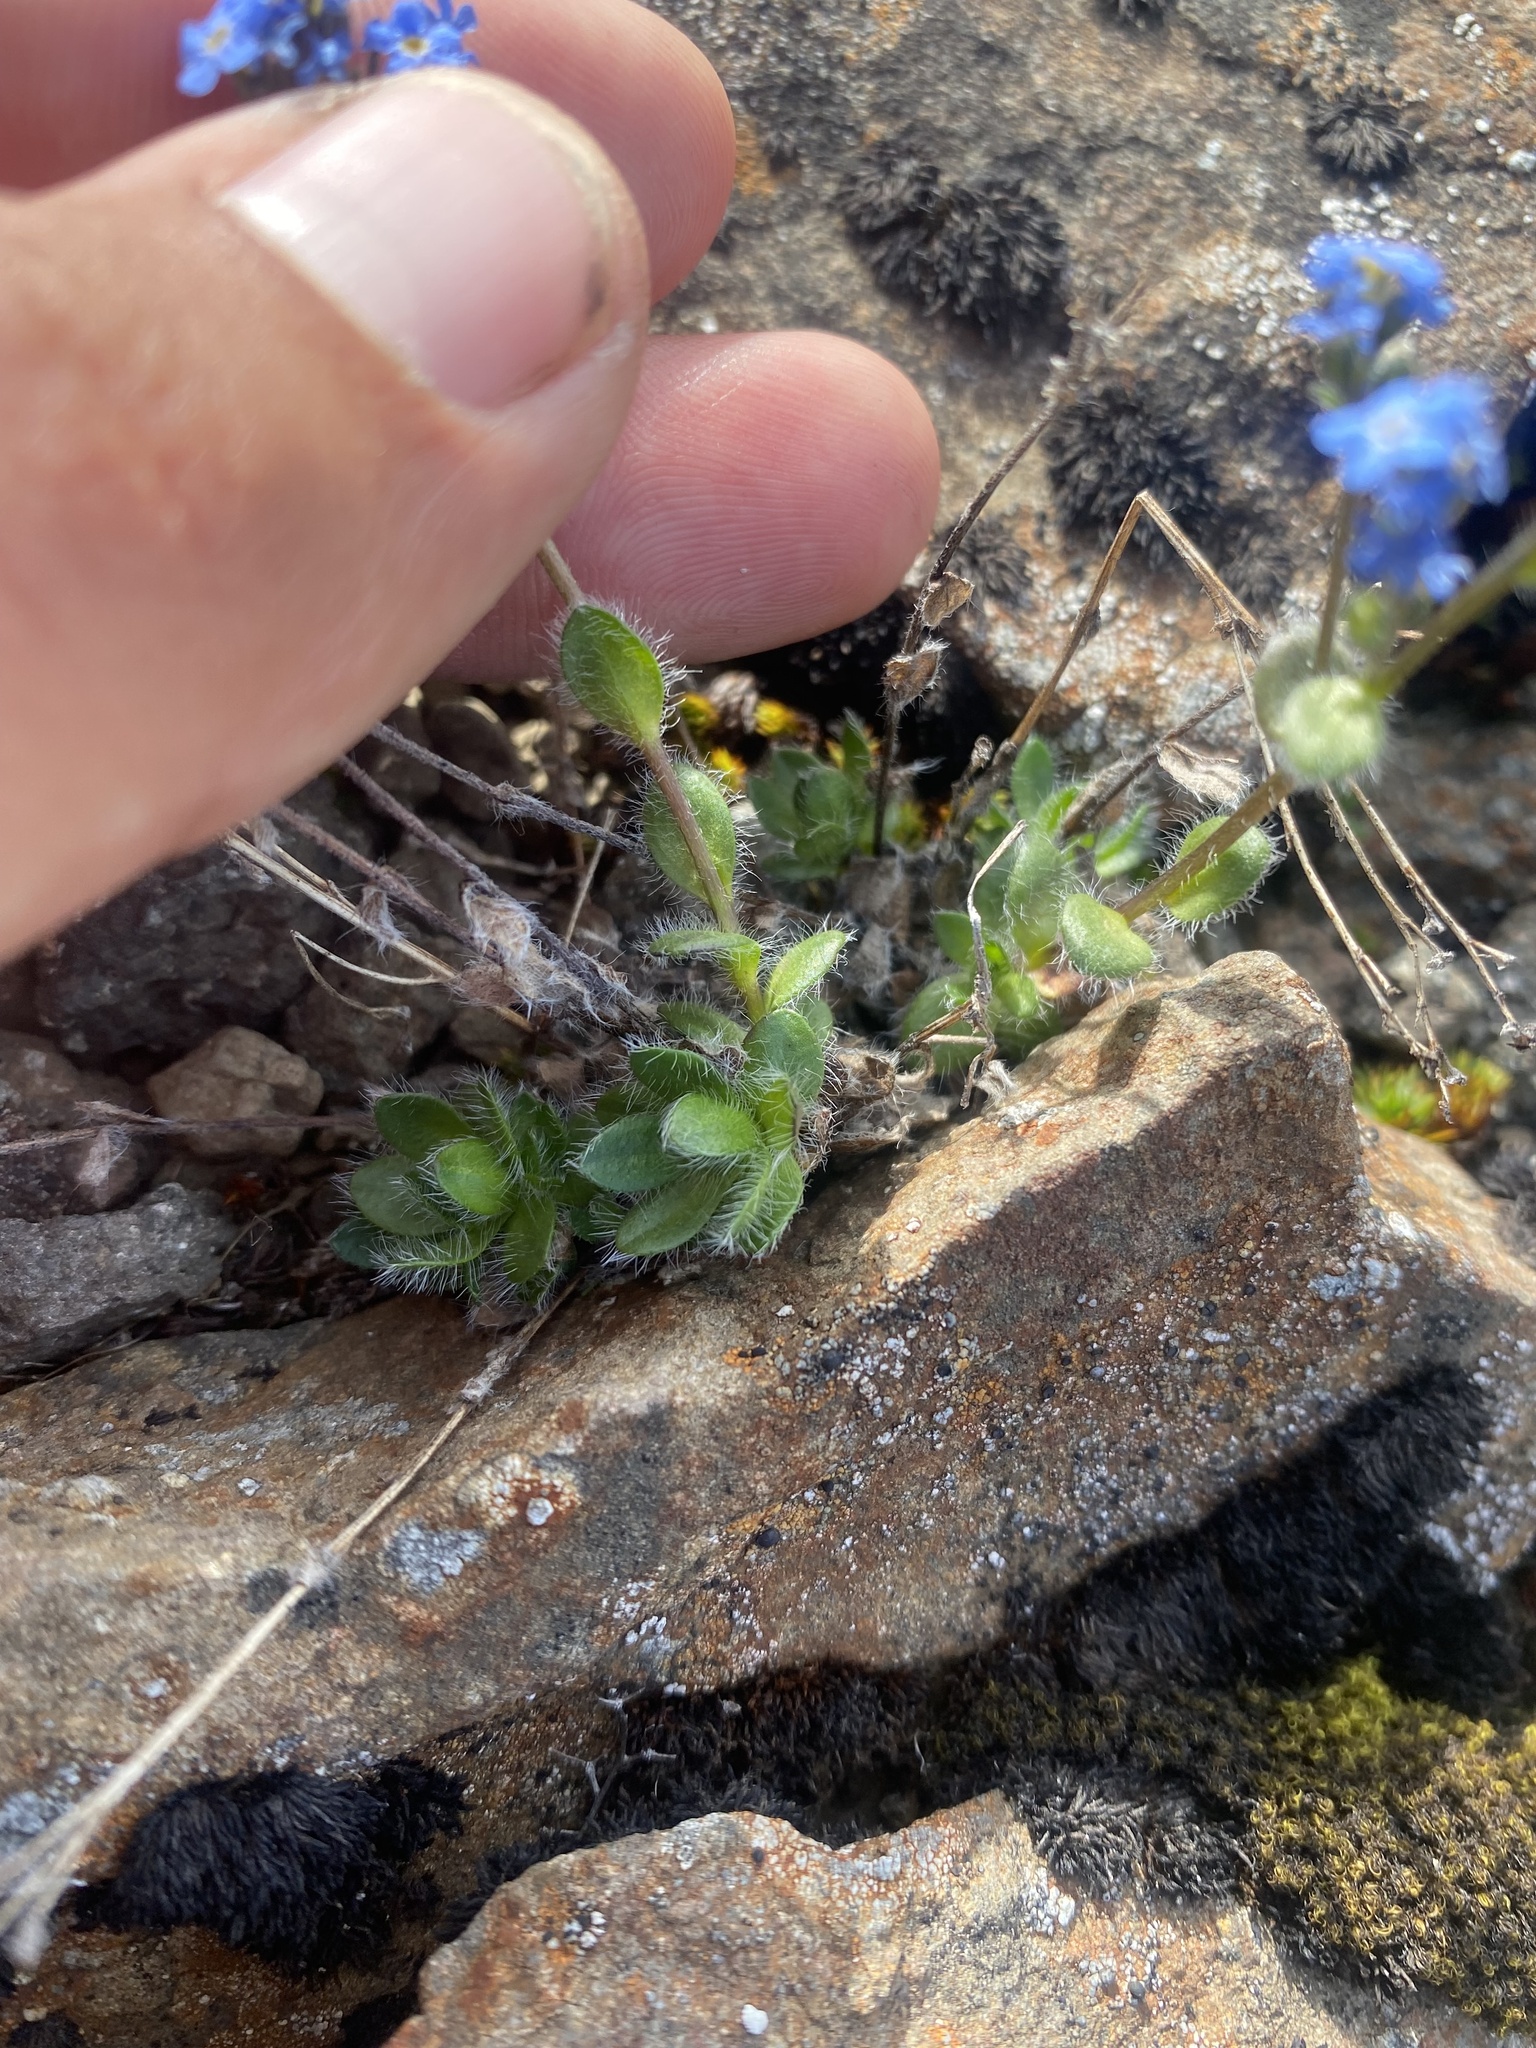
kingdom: Plantae
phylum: Tracheophyta
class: Magnoliopsida
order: Boraginales
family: Boraginaceae
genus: Eritrichium
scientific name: Eritrichium villosum
